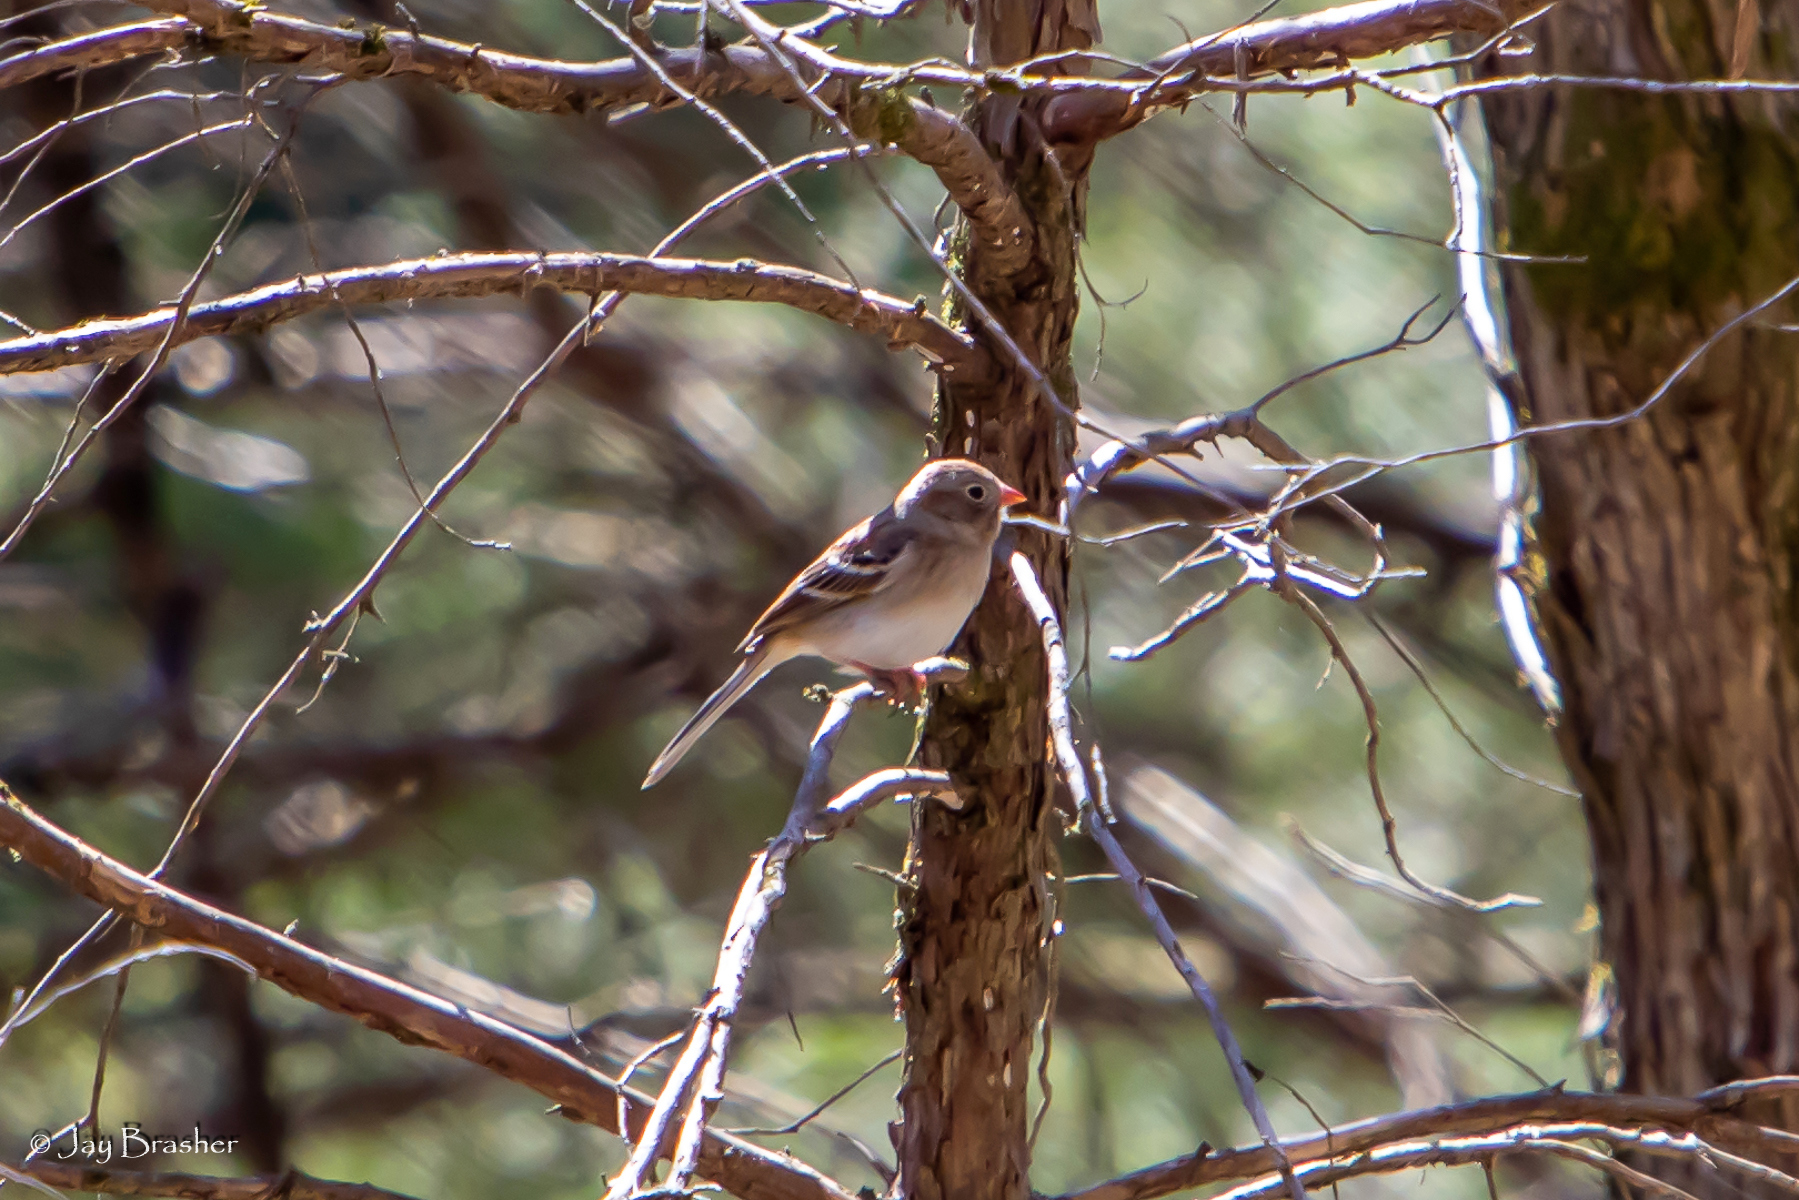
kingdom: Animalia
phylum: Chordata
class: Aves
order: Passeriformes
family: Passerellidae
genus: Spizella
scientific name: Spizella pusilla
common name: Field sparrow
